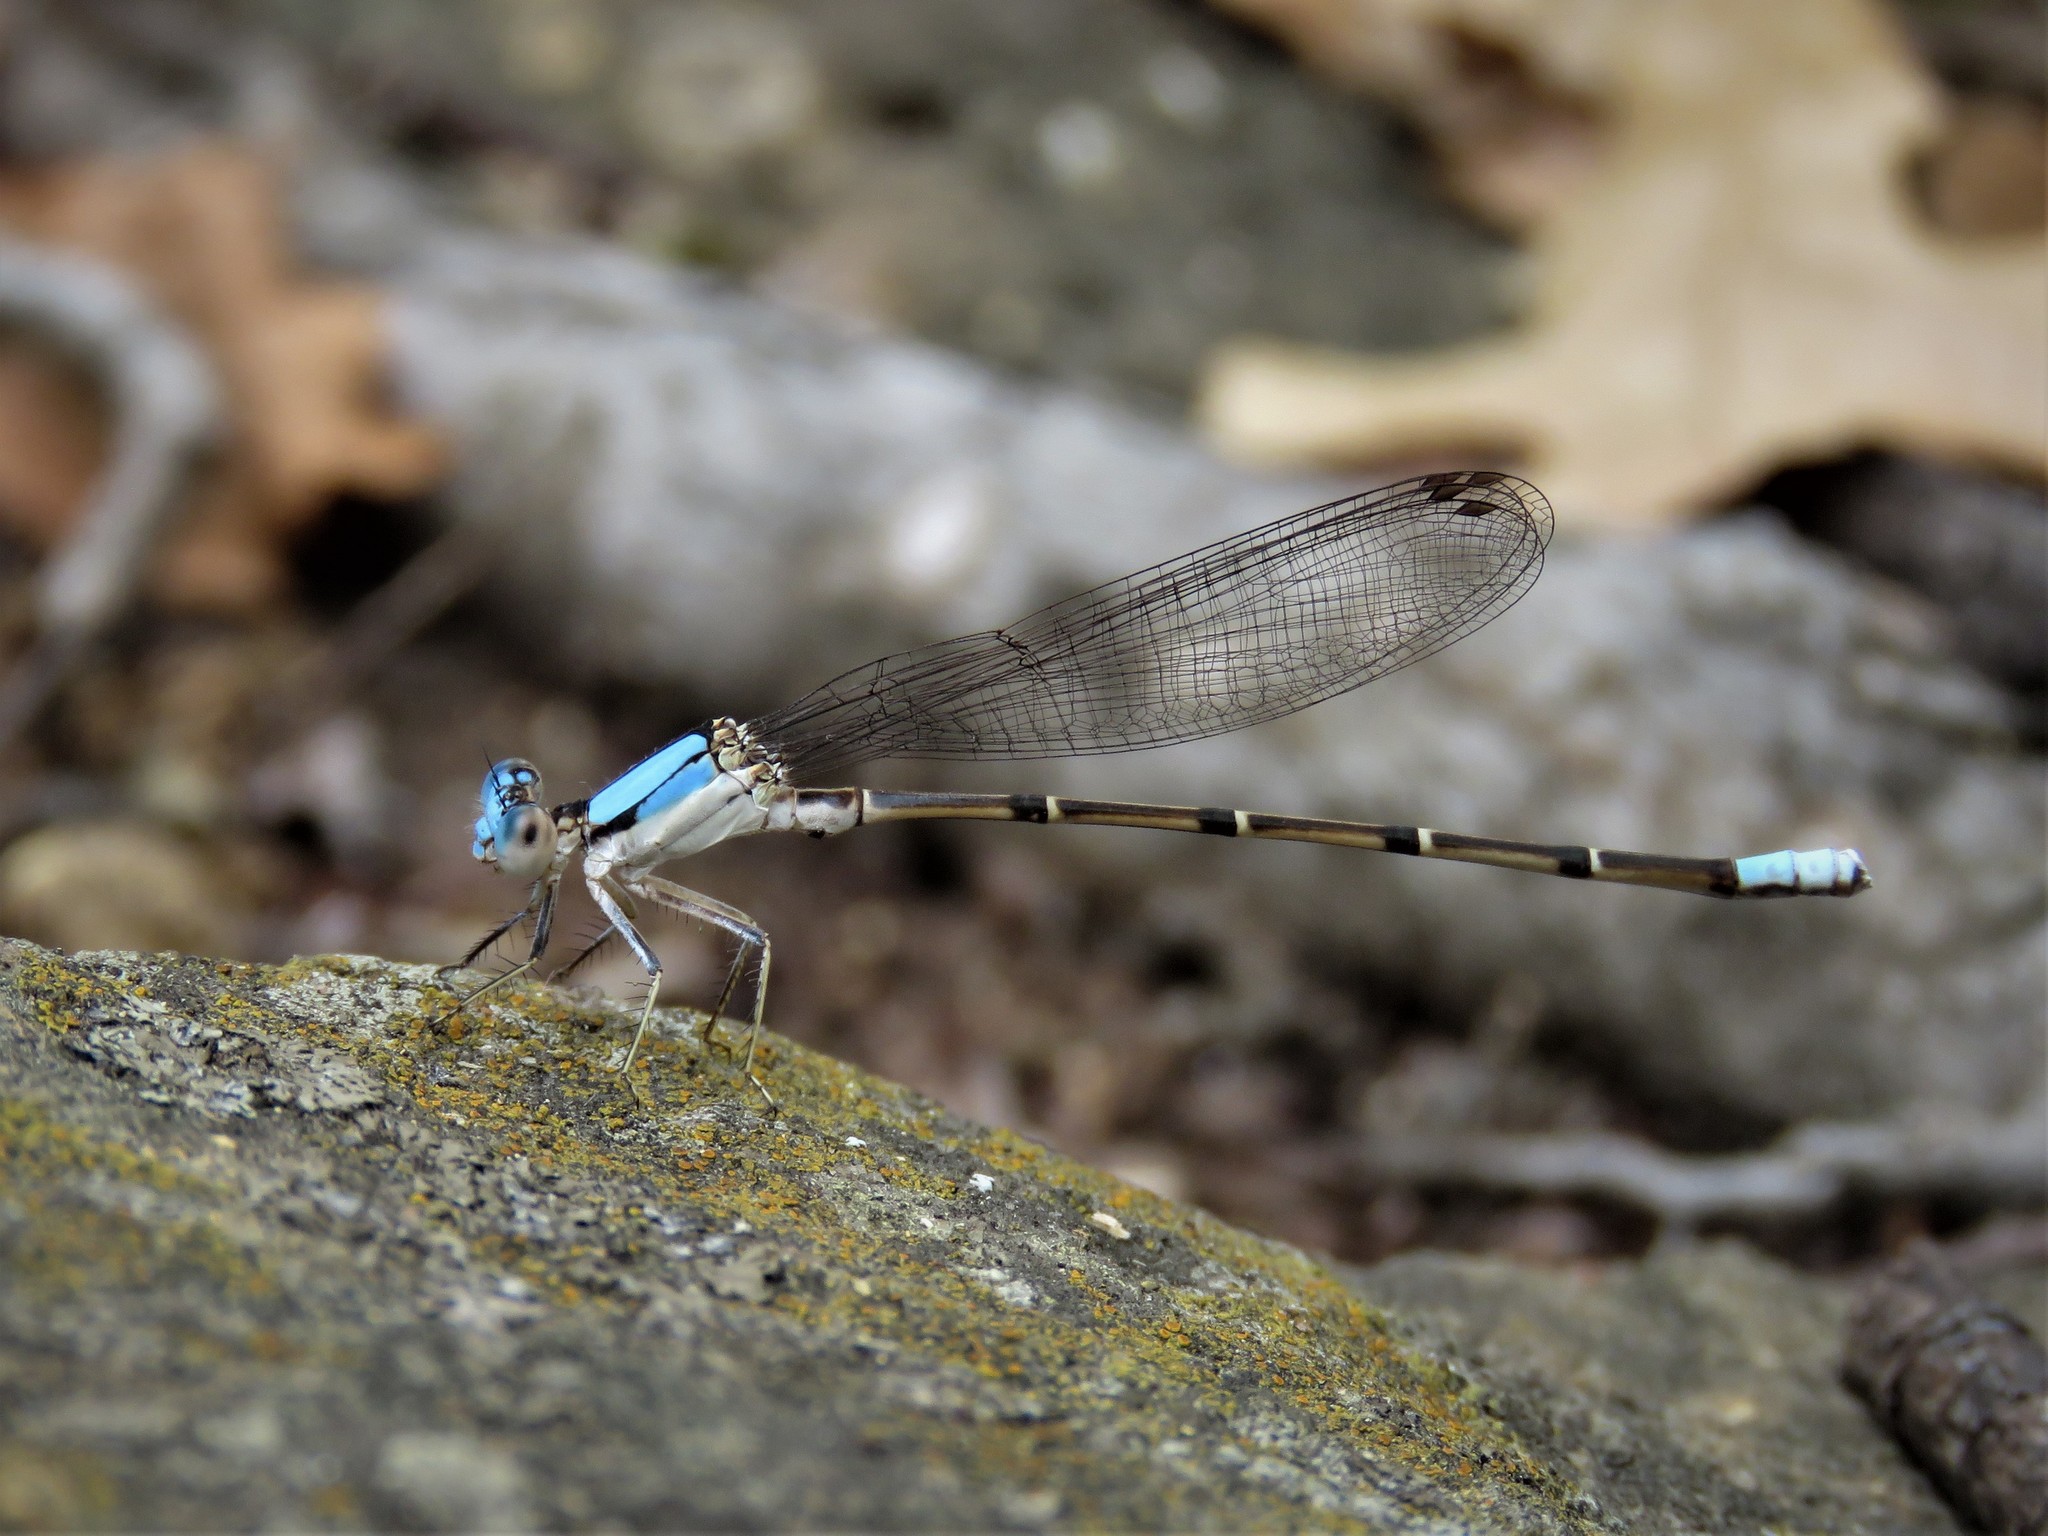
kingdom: Animalia
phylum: Arthropoda
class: Insecta
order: Odonata
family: Coenagrionidae
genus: Argia
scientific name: Argia apicalis
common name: Blue-fronted dancer
